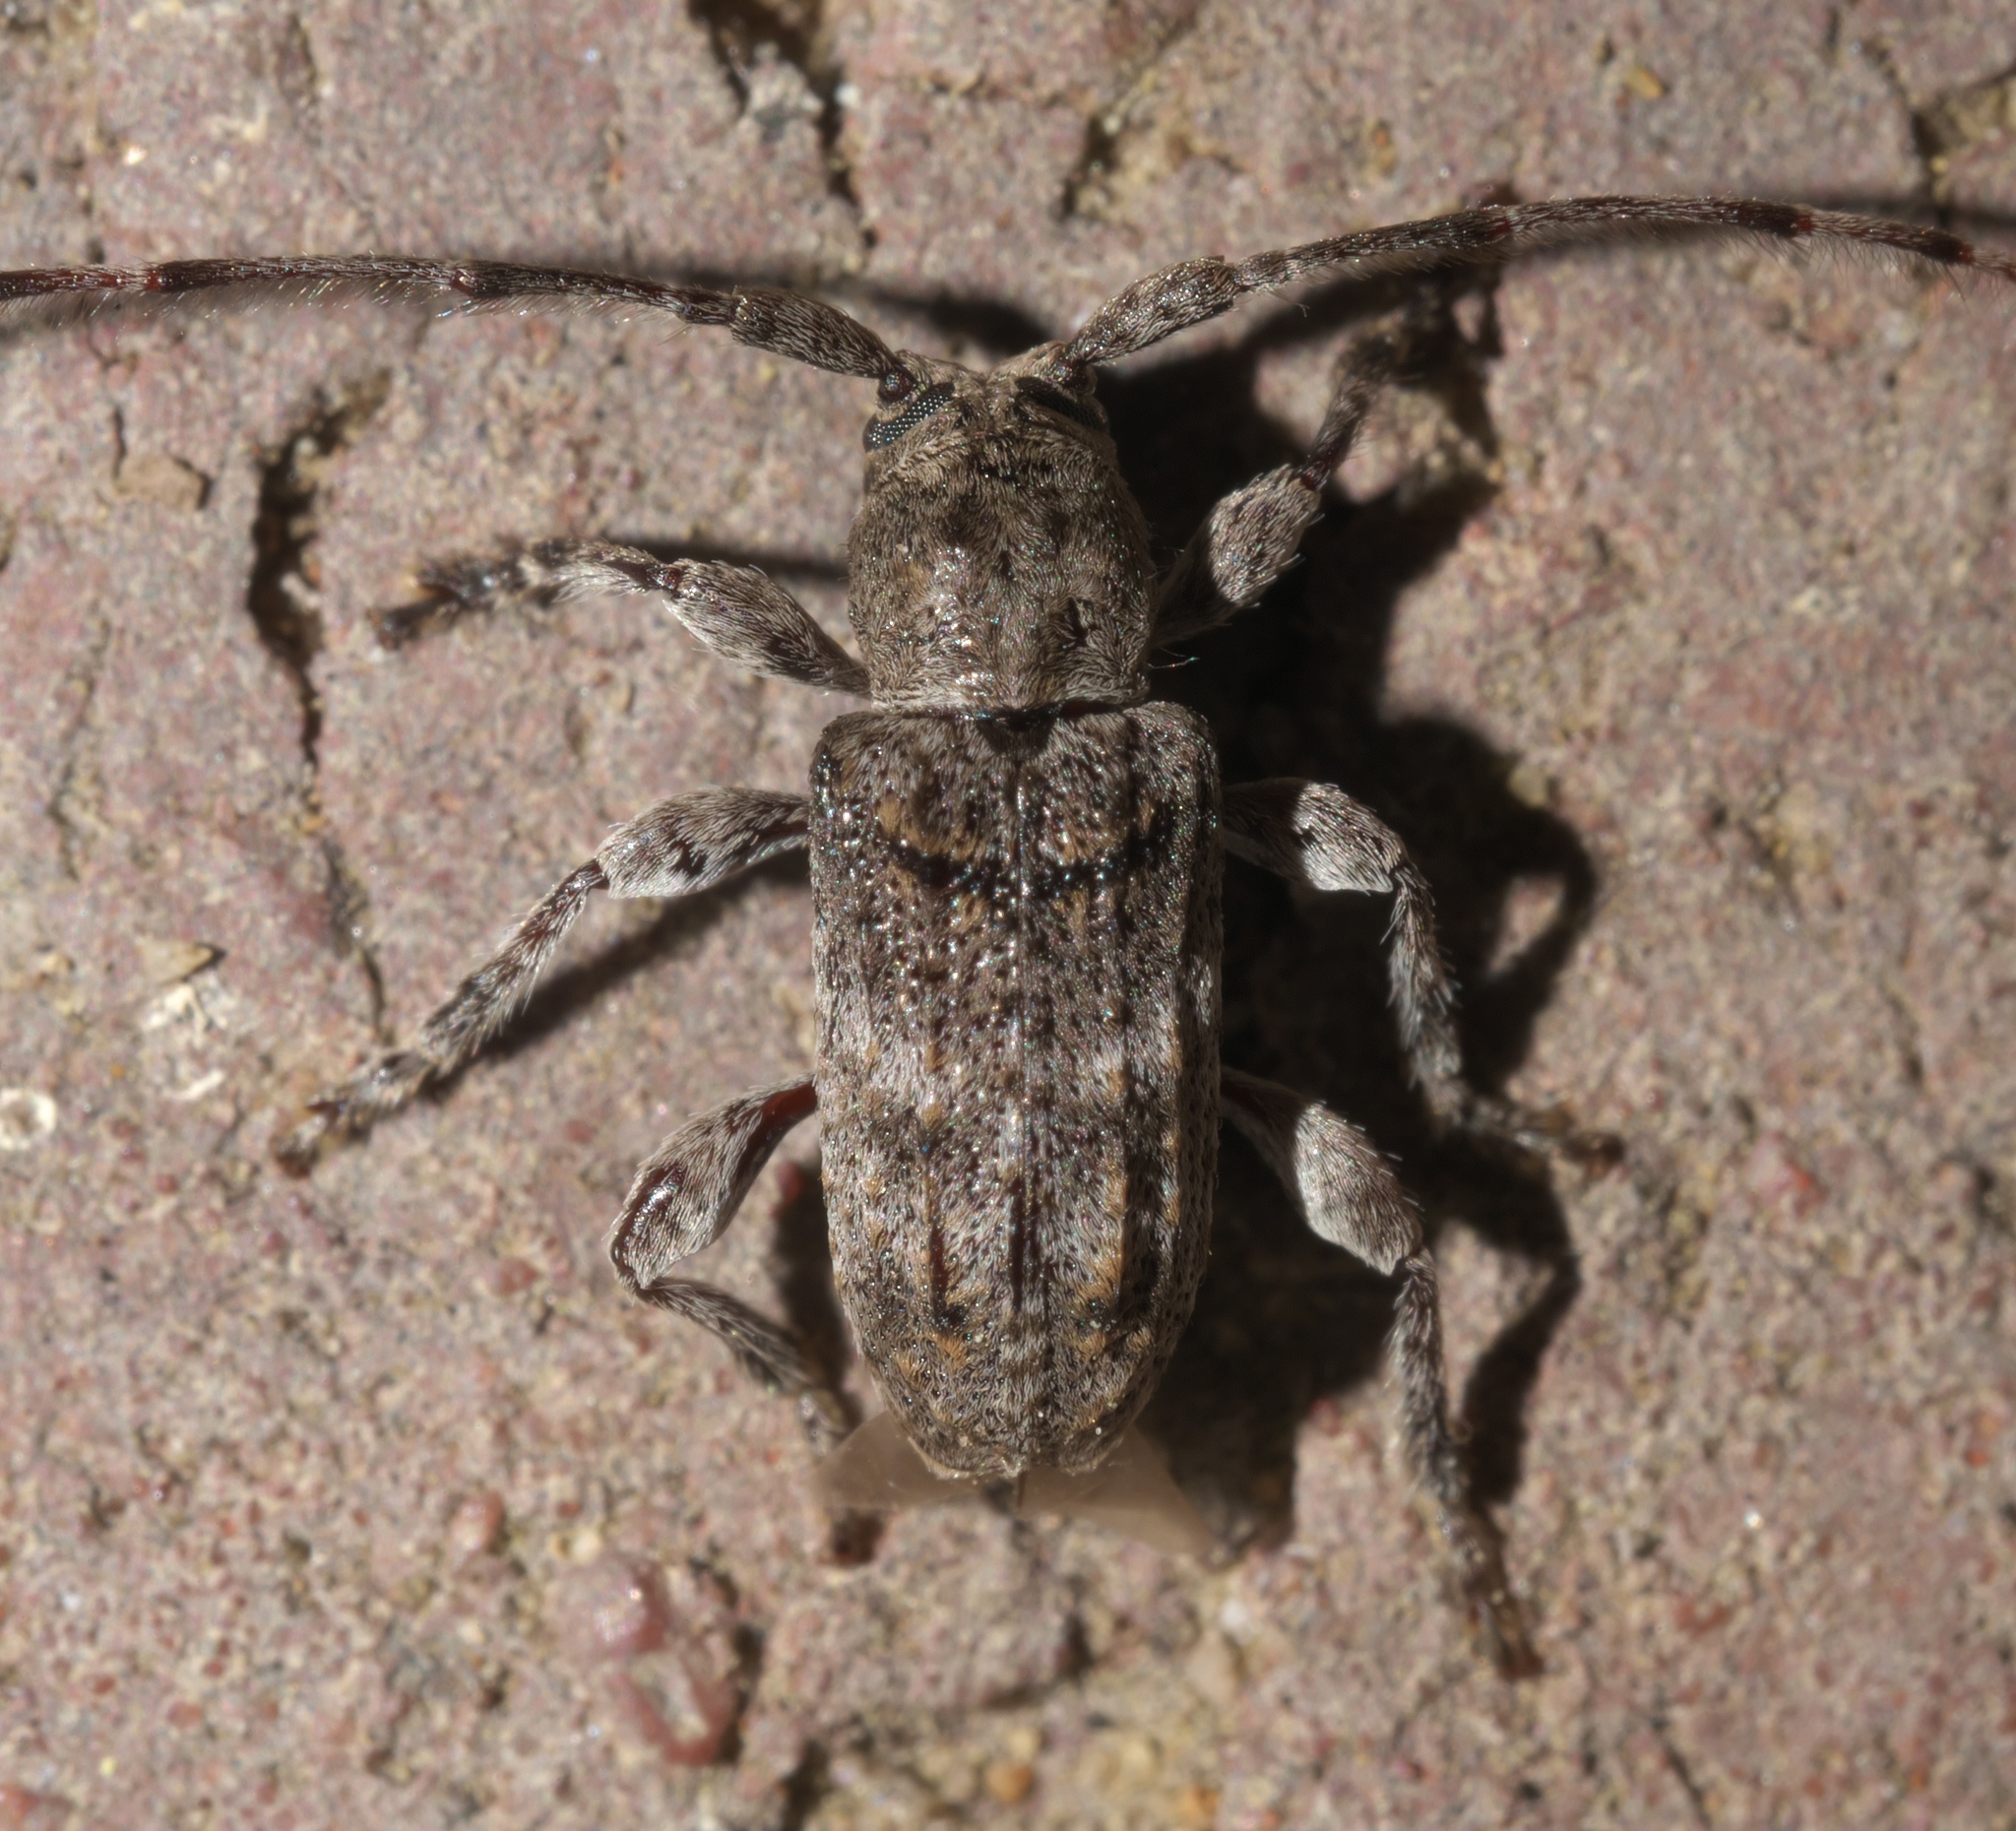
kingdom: Animalia
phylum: Arthropoda
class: Insecta
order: Coleoptera
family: Cerambycidae
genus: Ecyrus
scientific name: Ecyrus dasycerus
